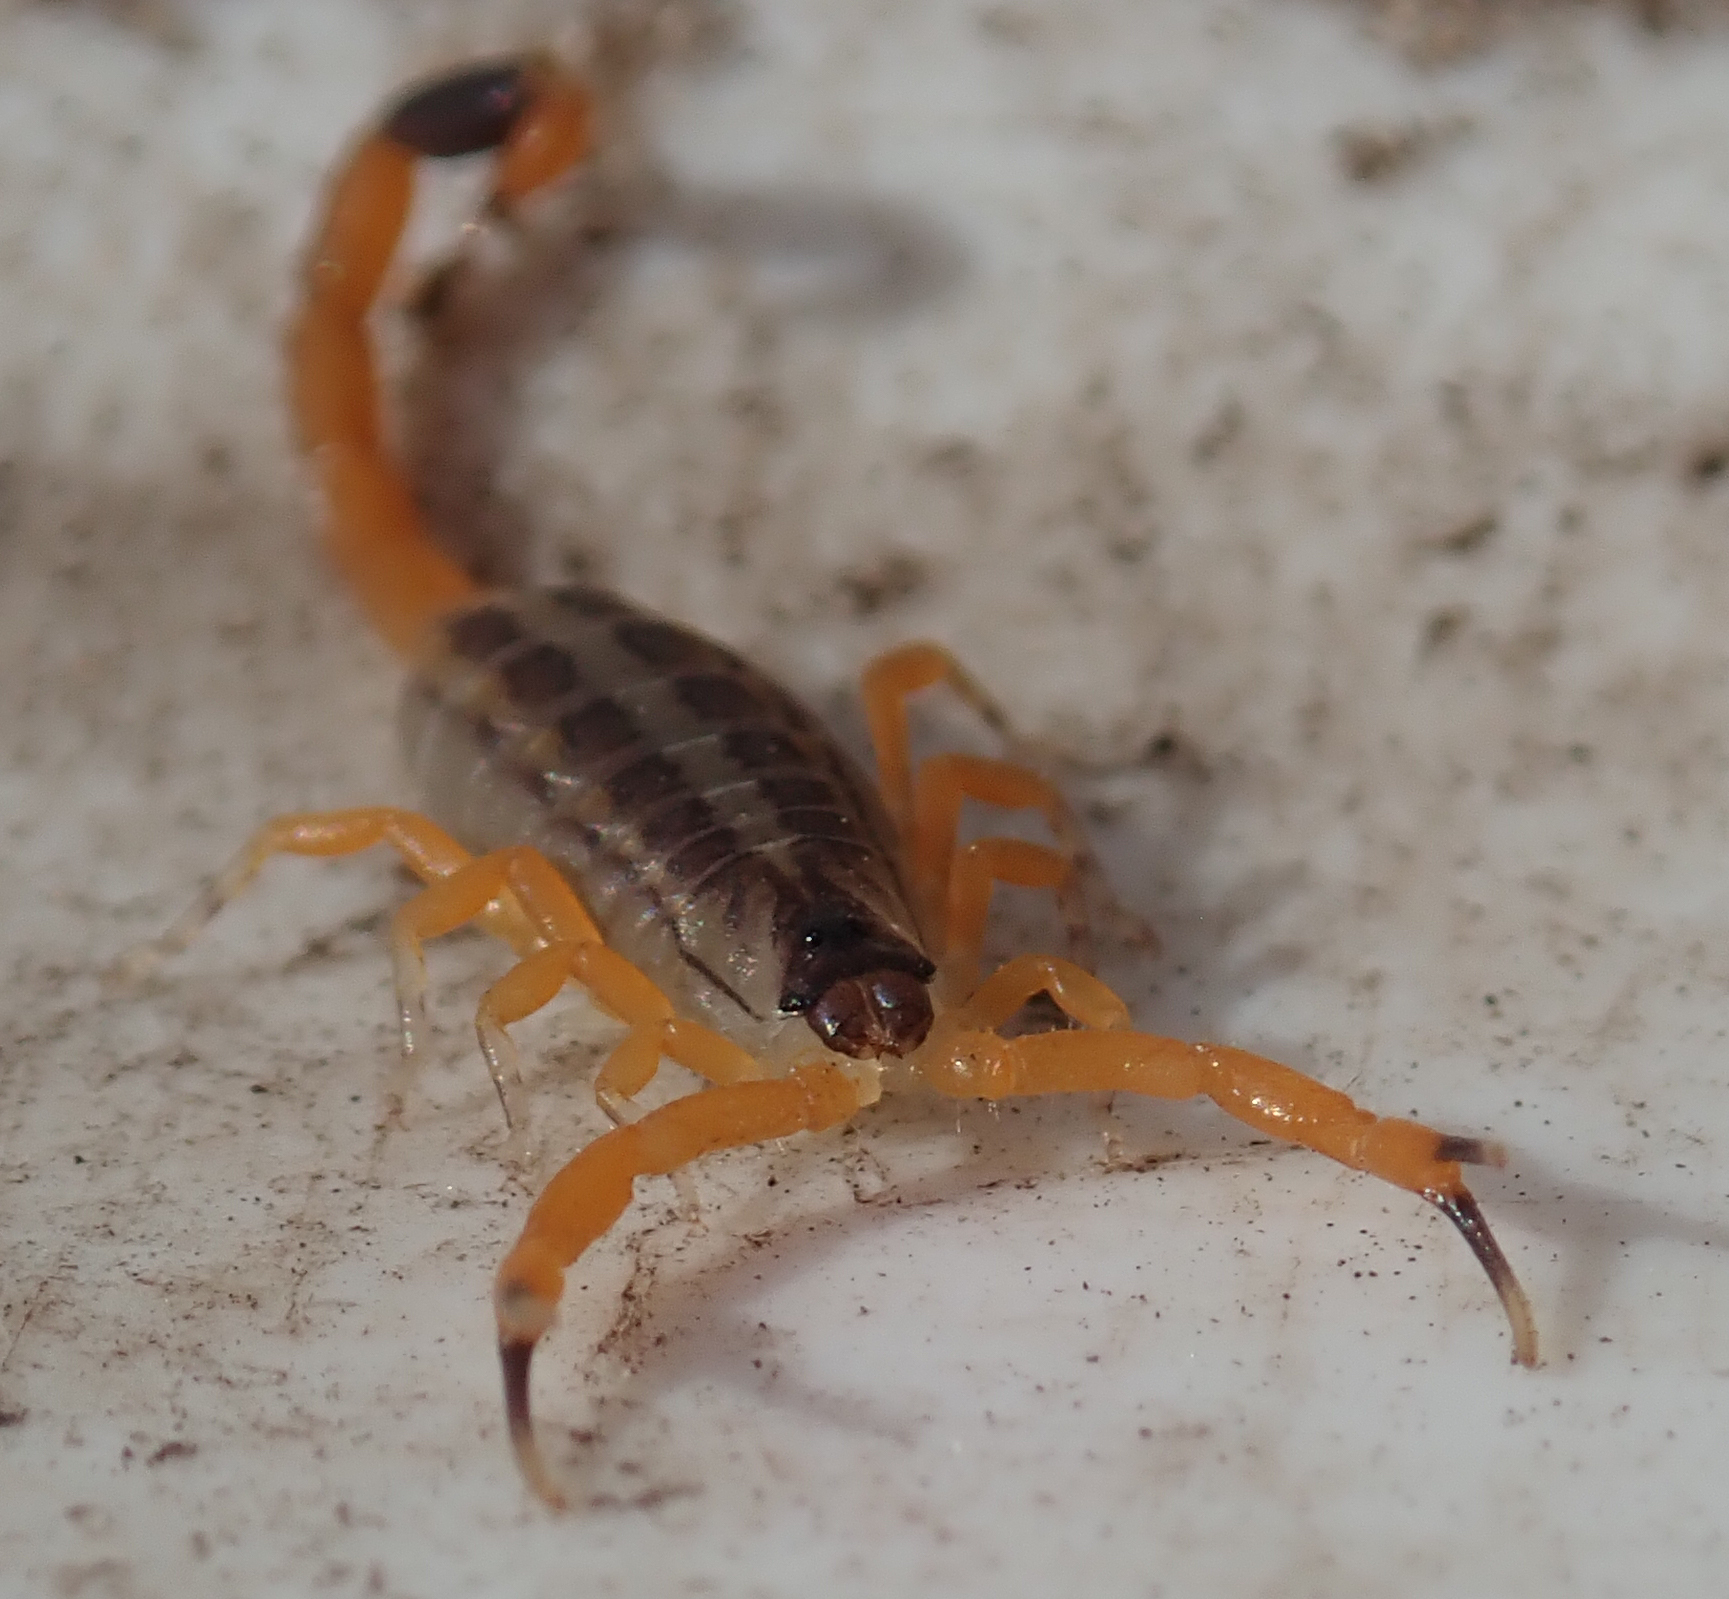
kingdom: Animalia
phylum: Arthropoda
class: Arachnida
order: Scorpiones
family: Buthidae
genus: Uroplectes
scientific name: Uroplectes vittatus
